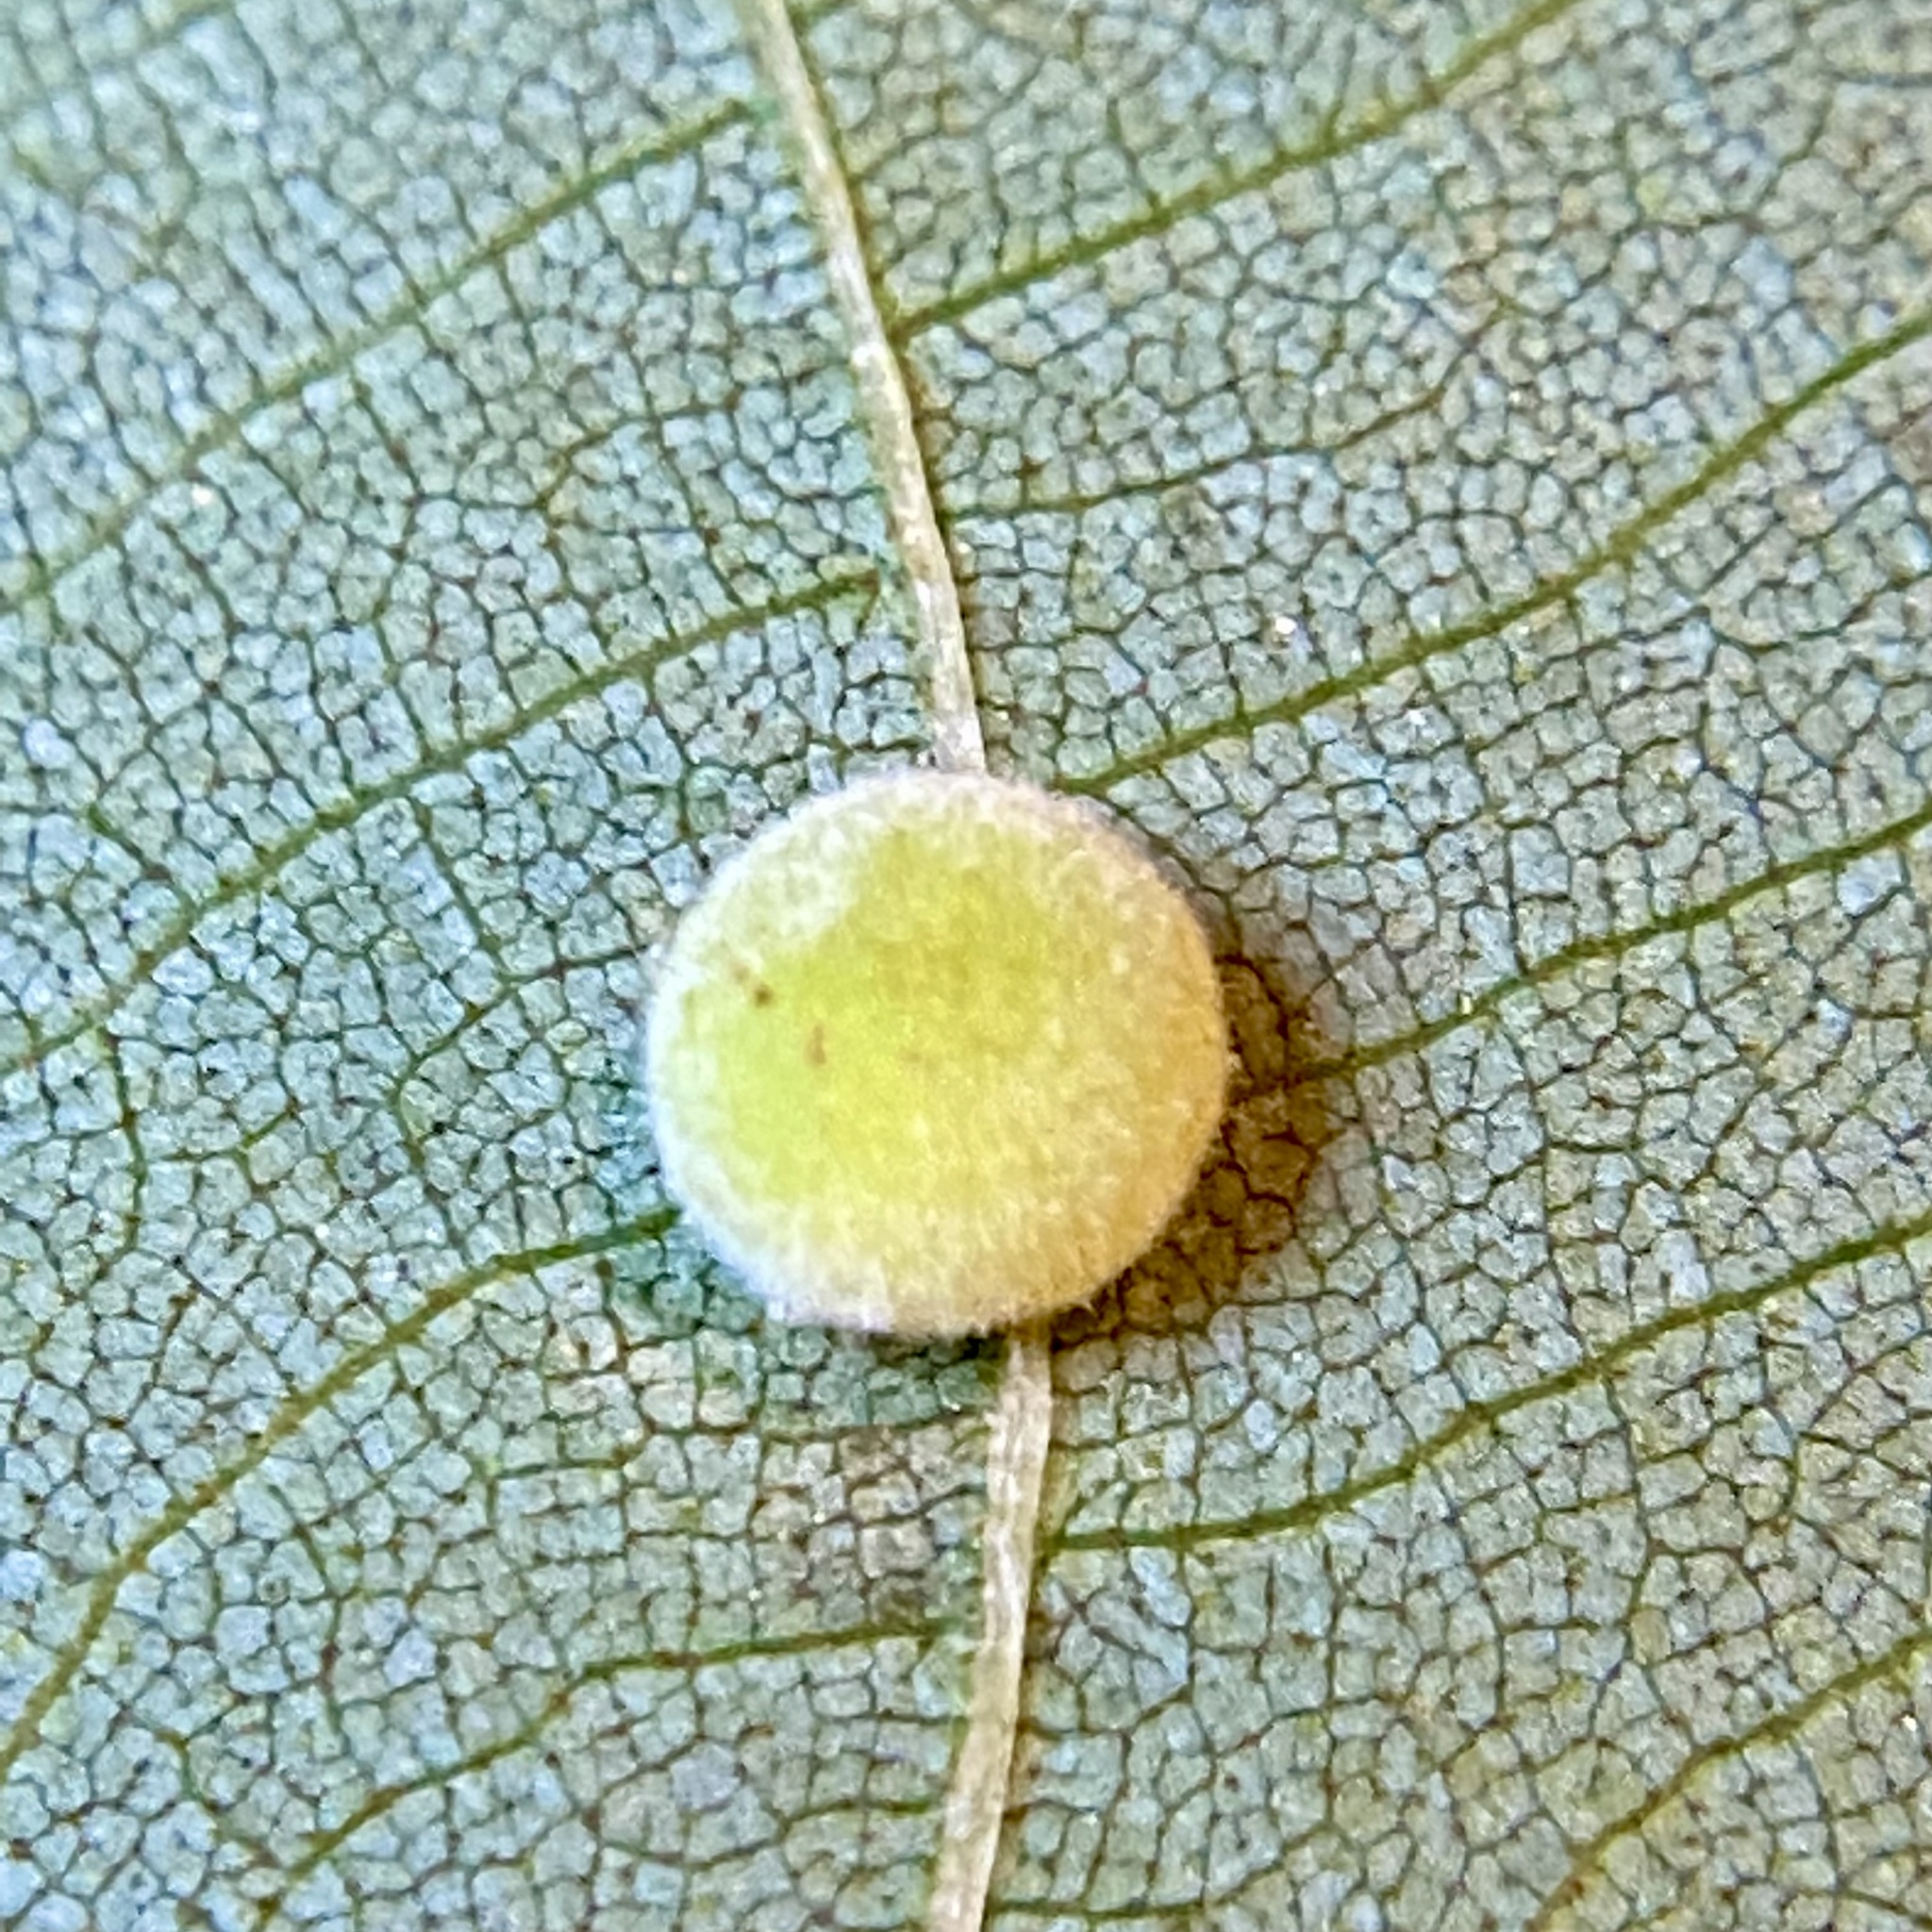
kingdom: Animalia
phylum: Arthropoda
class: Insecta
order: Diptera
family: Cecidomyiidae
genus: Caryomyia
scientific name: Caryomyia persicoides
